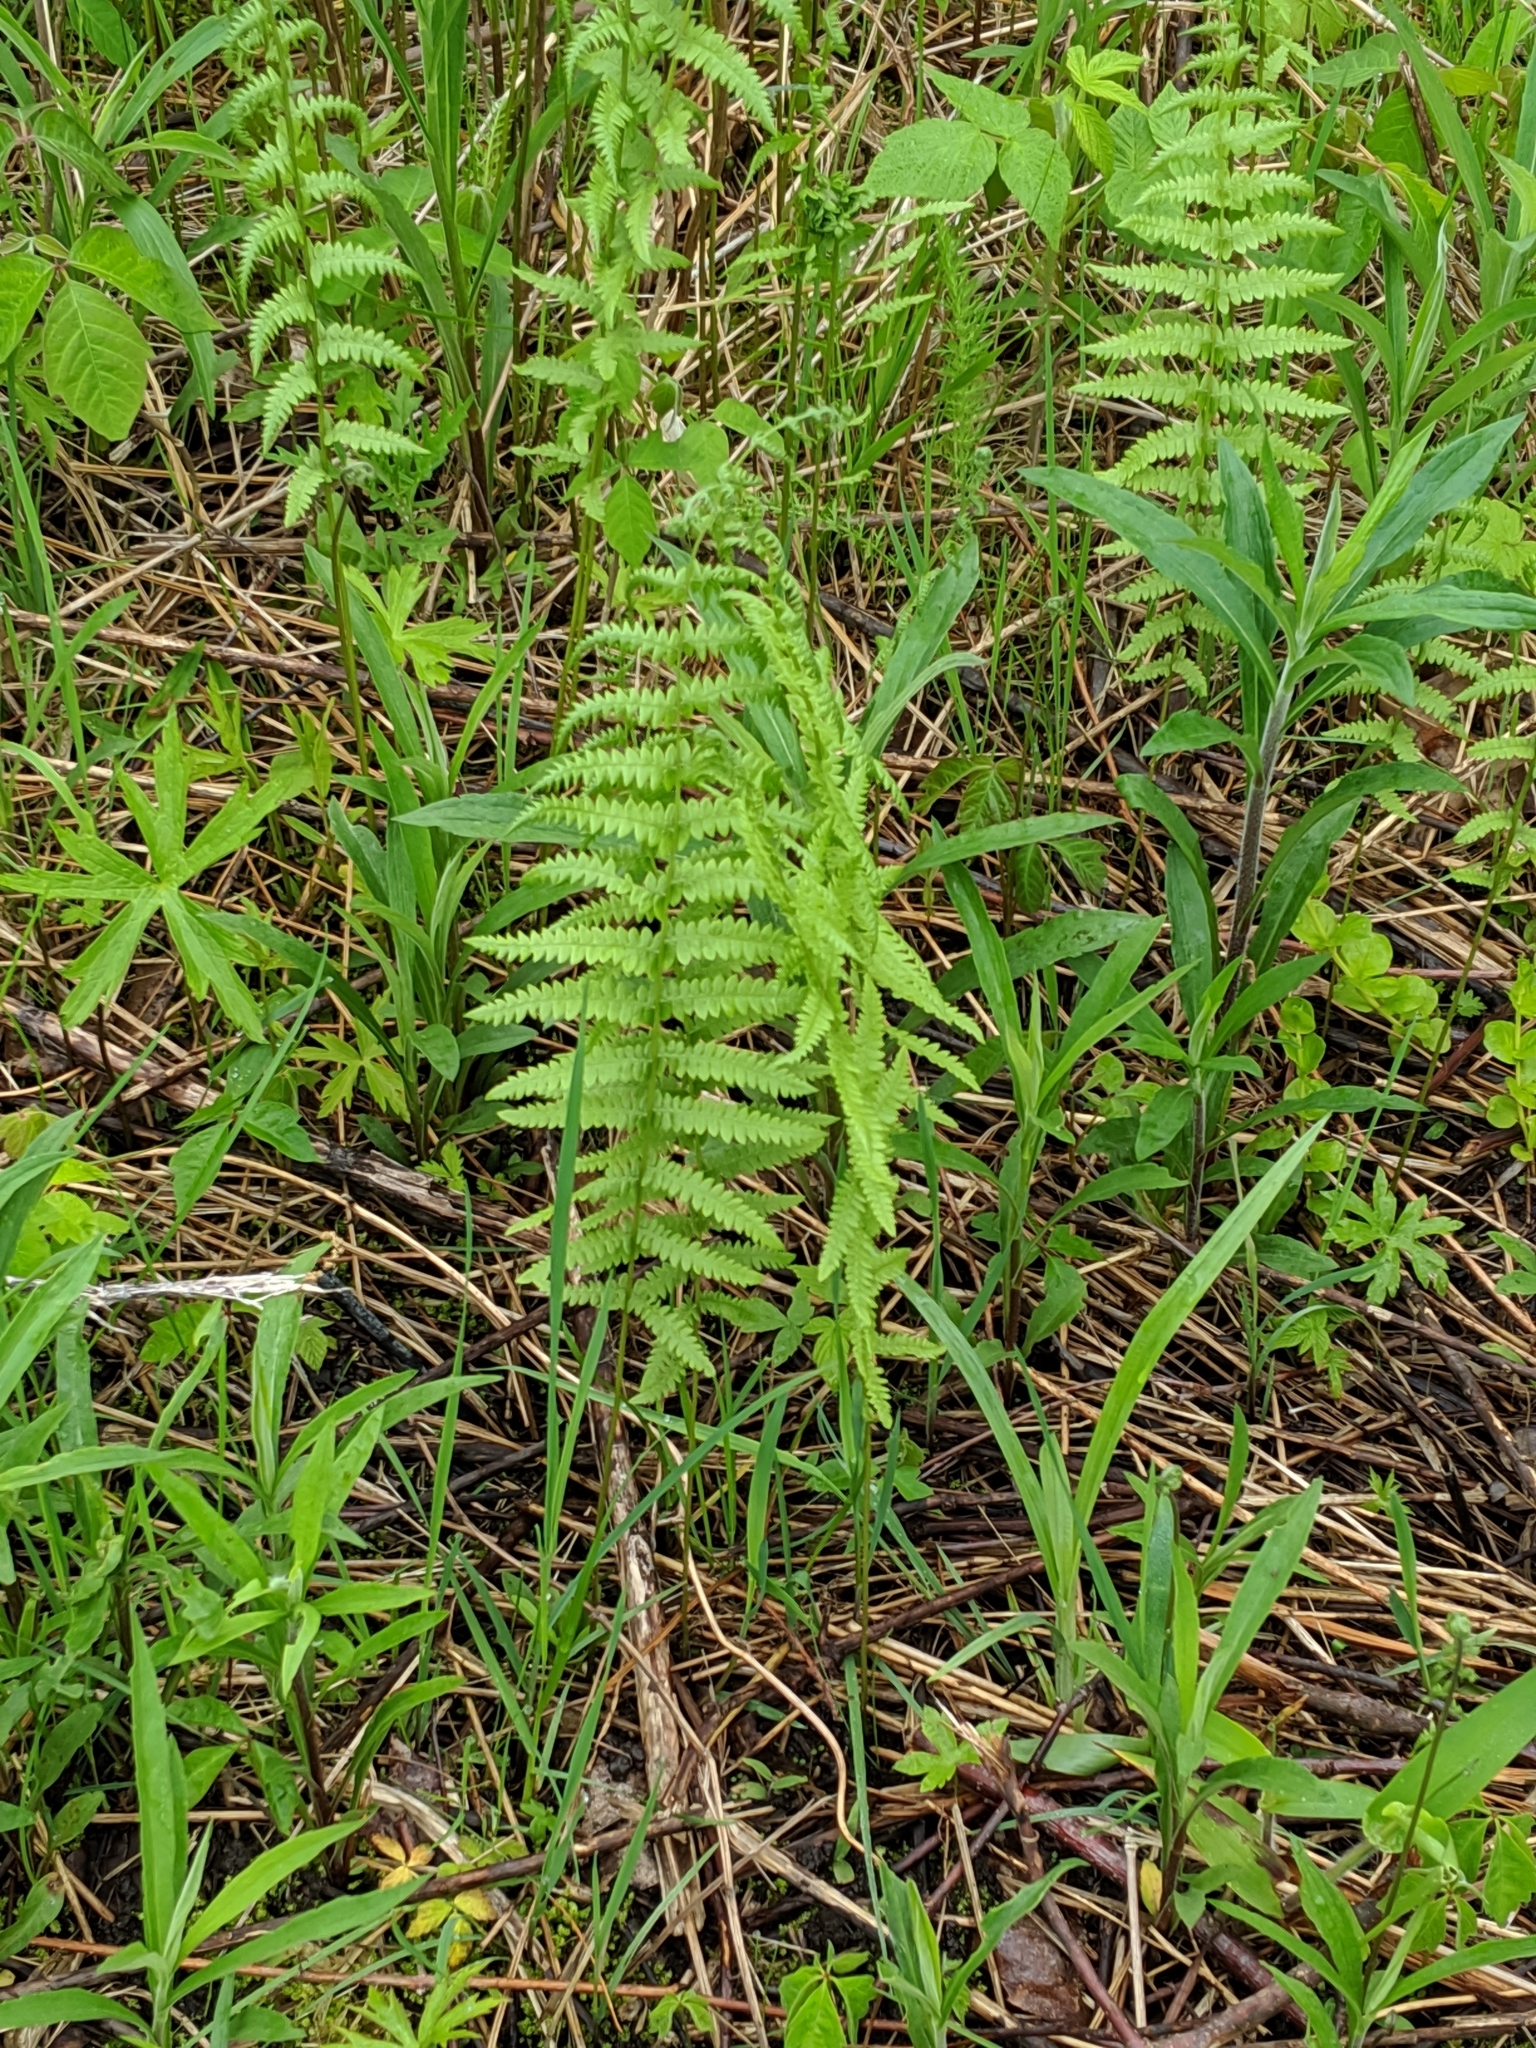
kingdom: Plantae
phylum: Tracheophyta
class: Polypodiopsida
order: Polypodiales
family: Thelypteridaceae
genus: Thelypteris
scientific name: Thelypteris palustris
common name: Marsh fern
